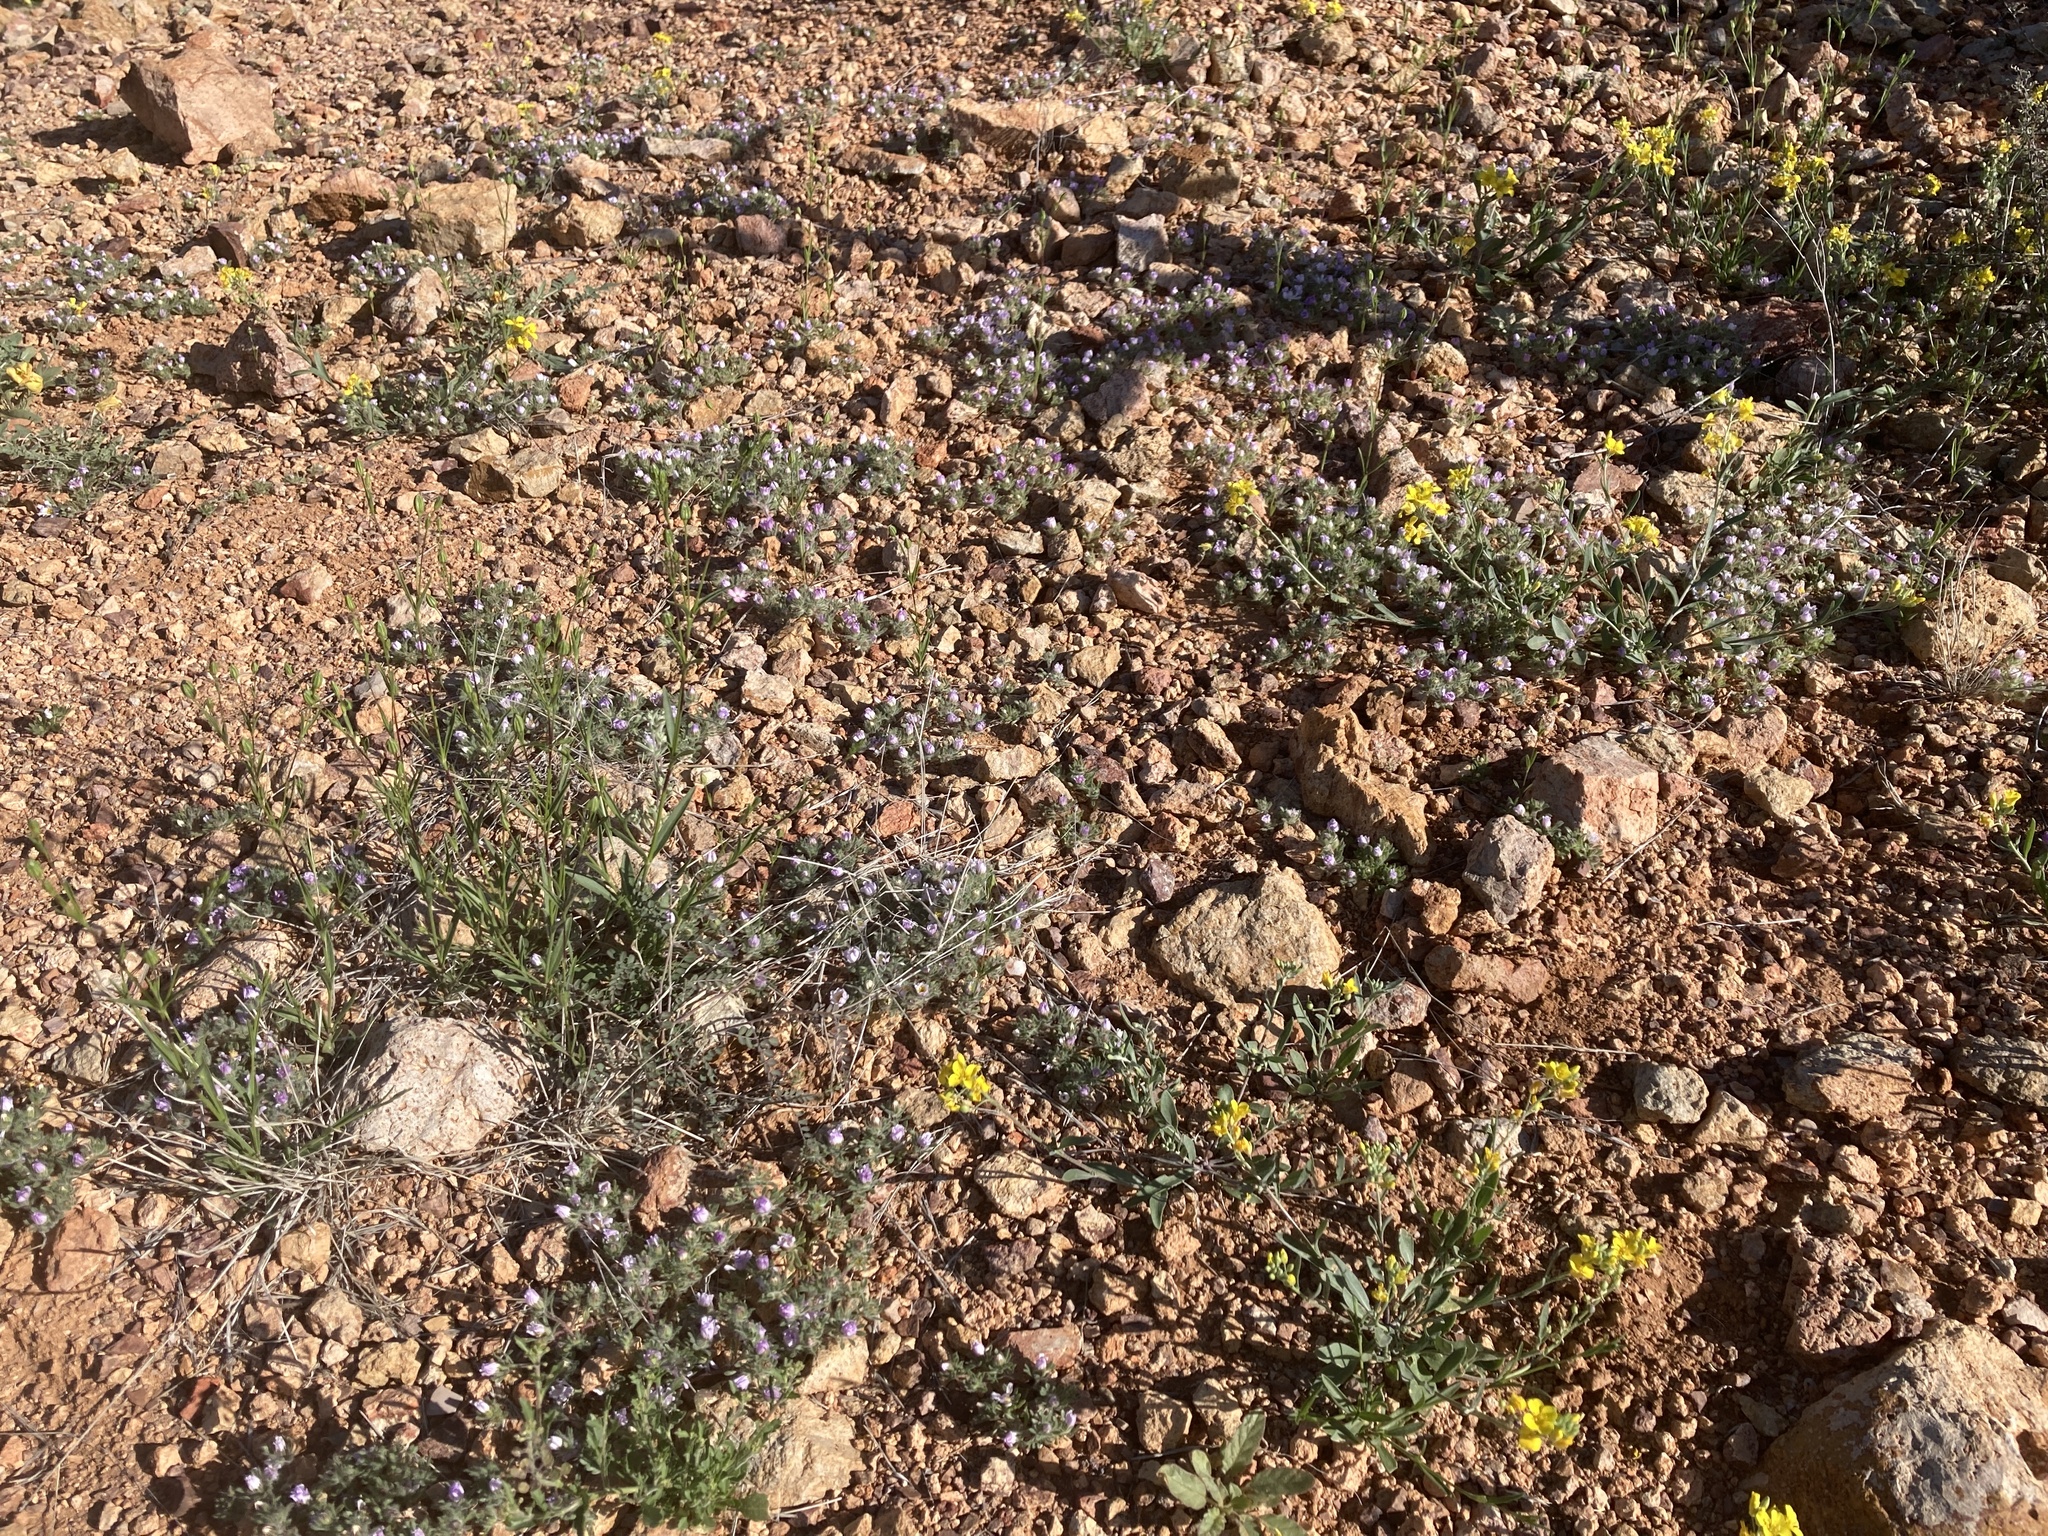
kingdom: Plantae
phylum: Tracheophyta
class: Magnoliopsida
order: Asterales
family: Asteraceae
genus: Monoptilon
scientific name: Monoptilon bellioides
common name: Bristly desertstar
